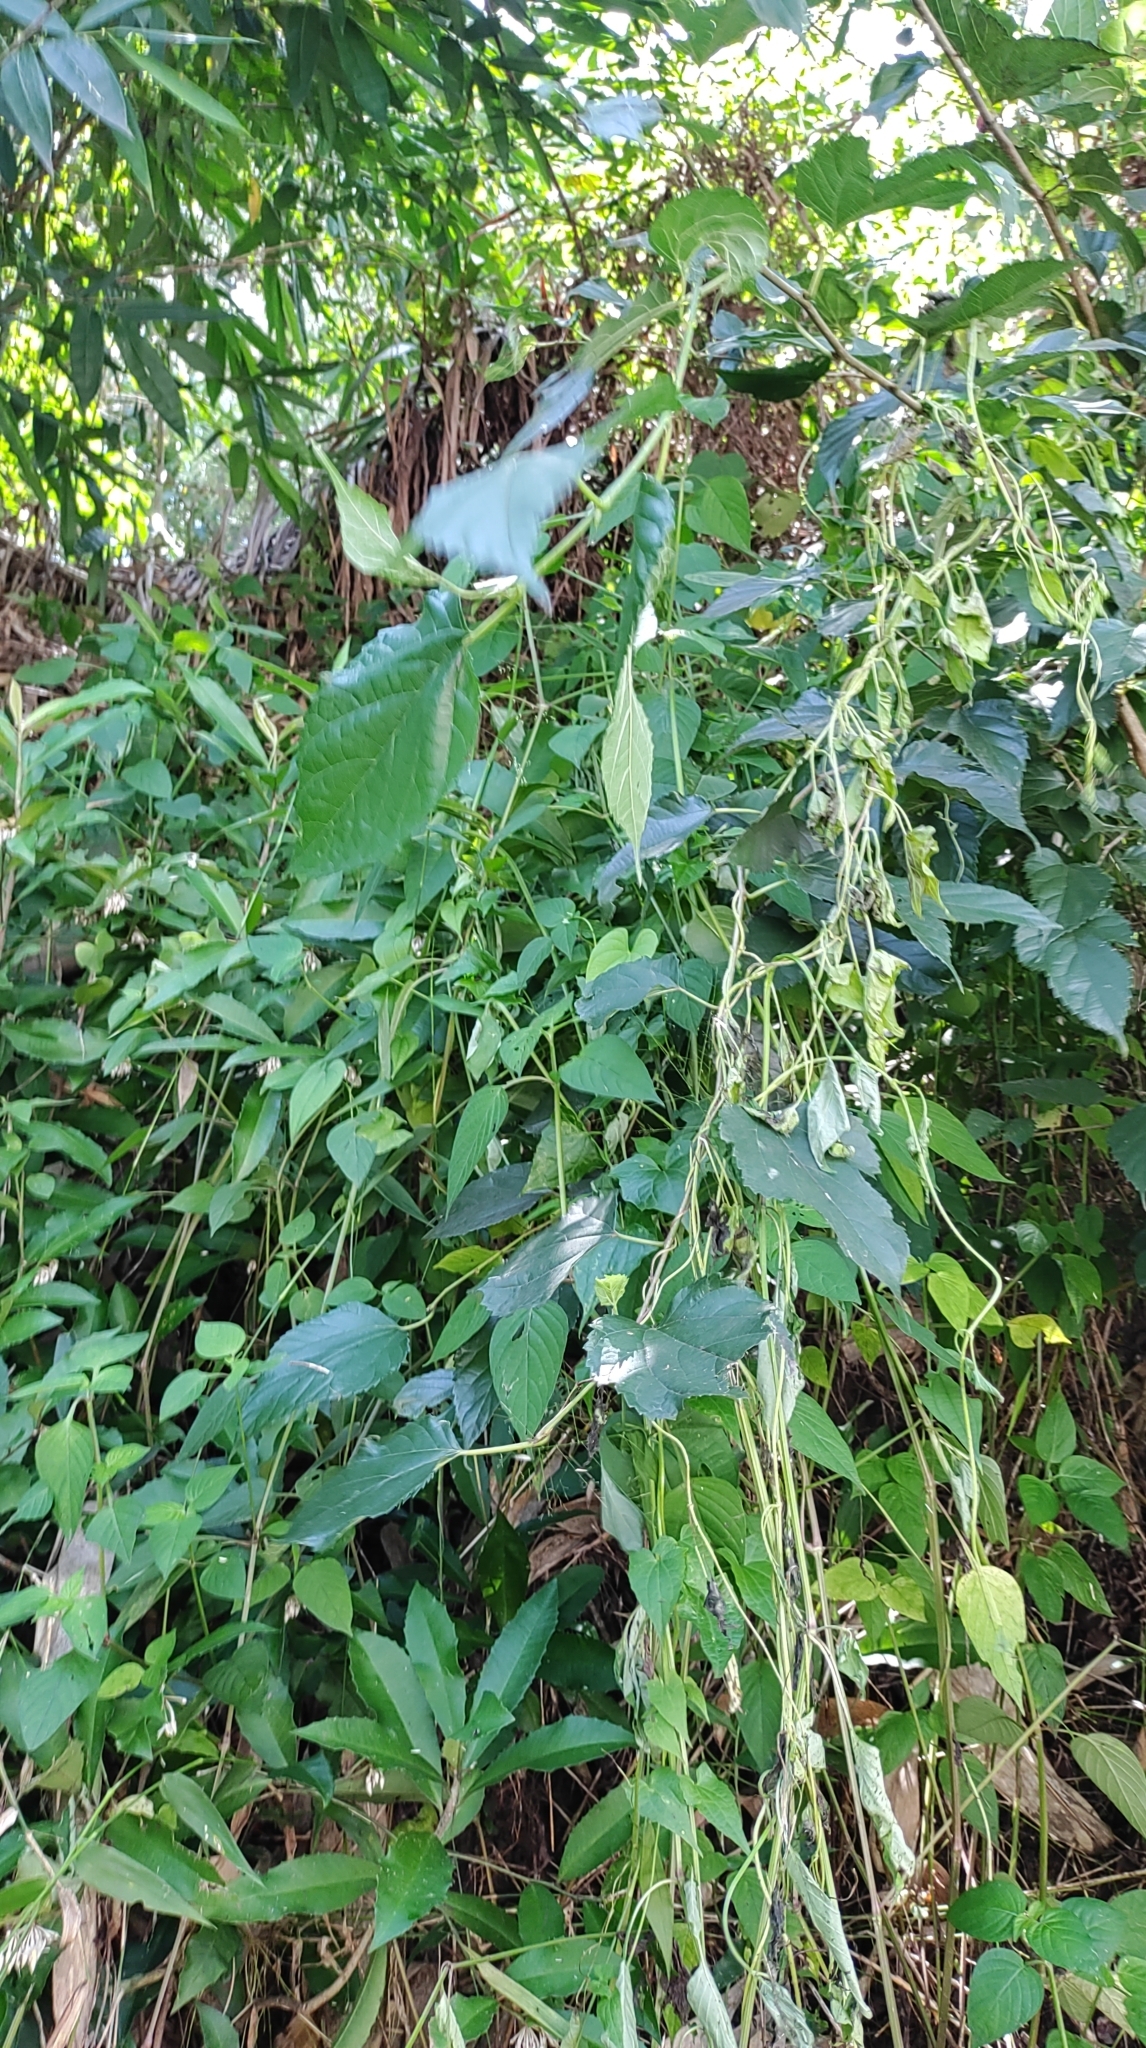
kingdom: Plantae
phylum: Tracheophyta
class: Magnoliopsida
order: Rosales
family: Moraceae
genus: Morus
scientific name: Morus indica
